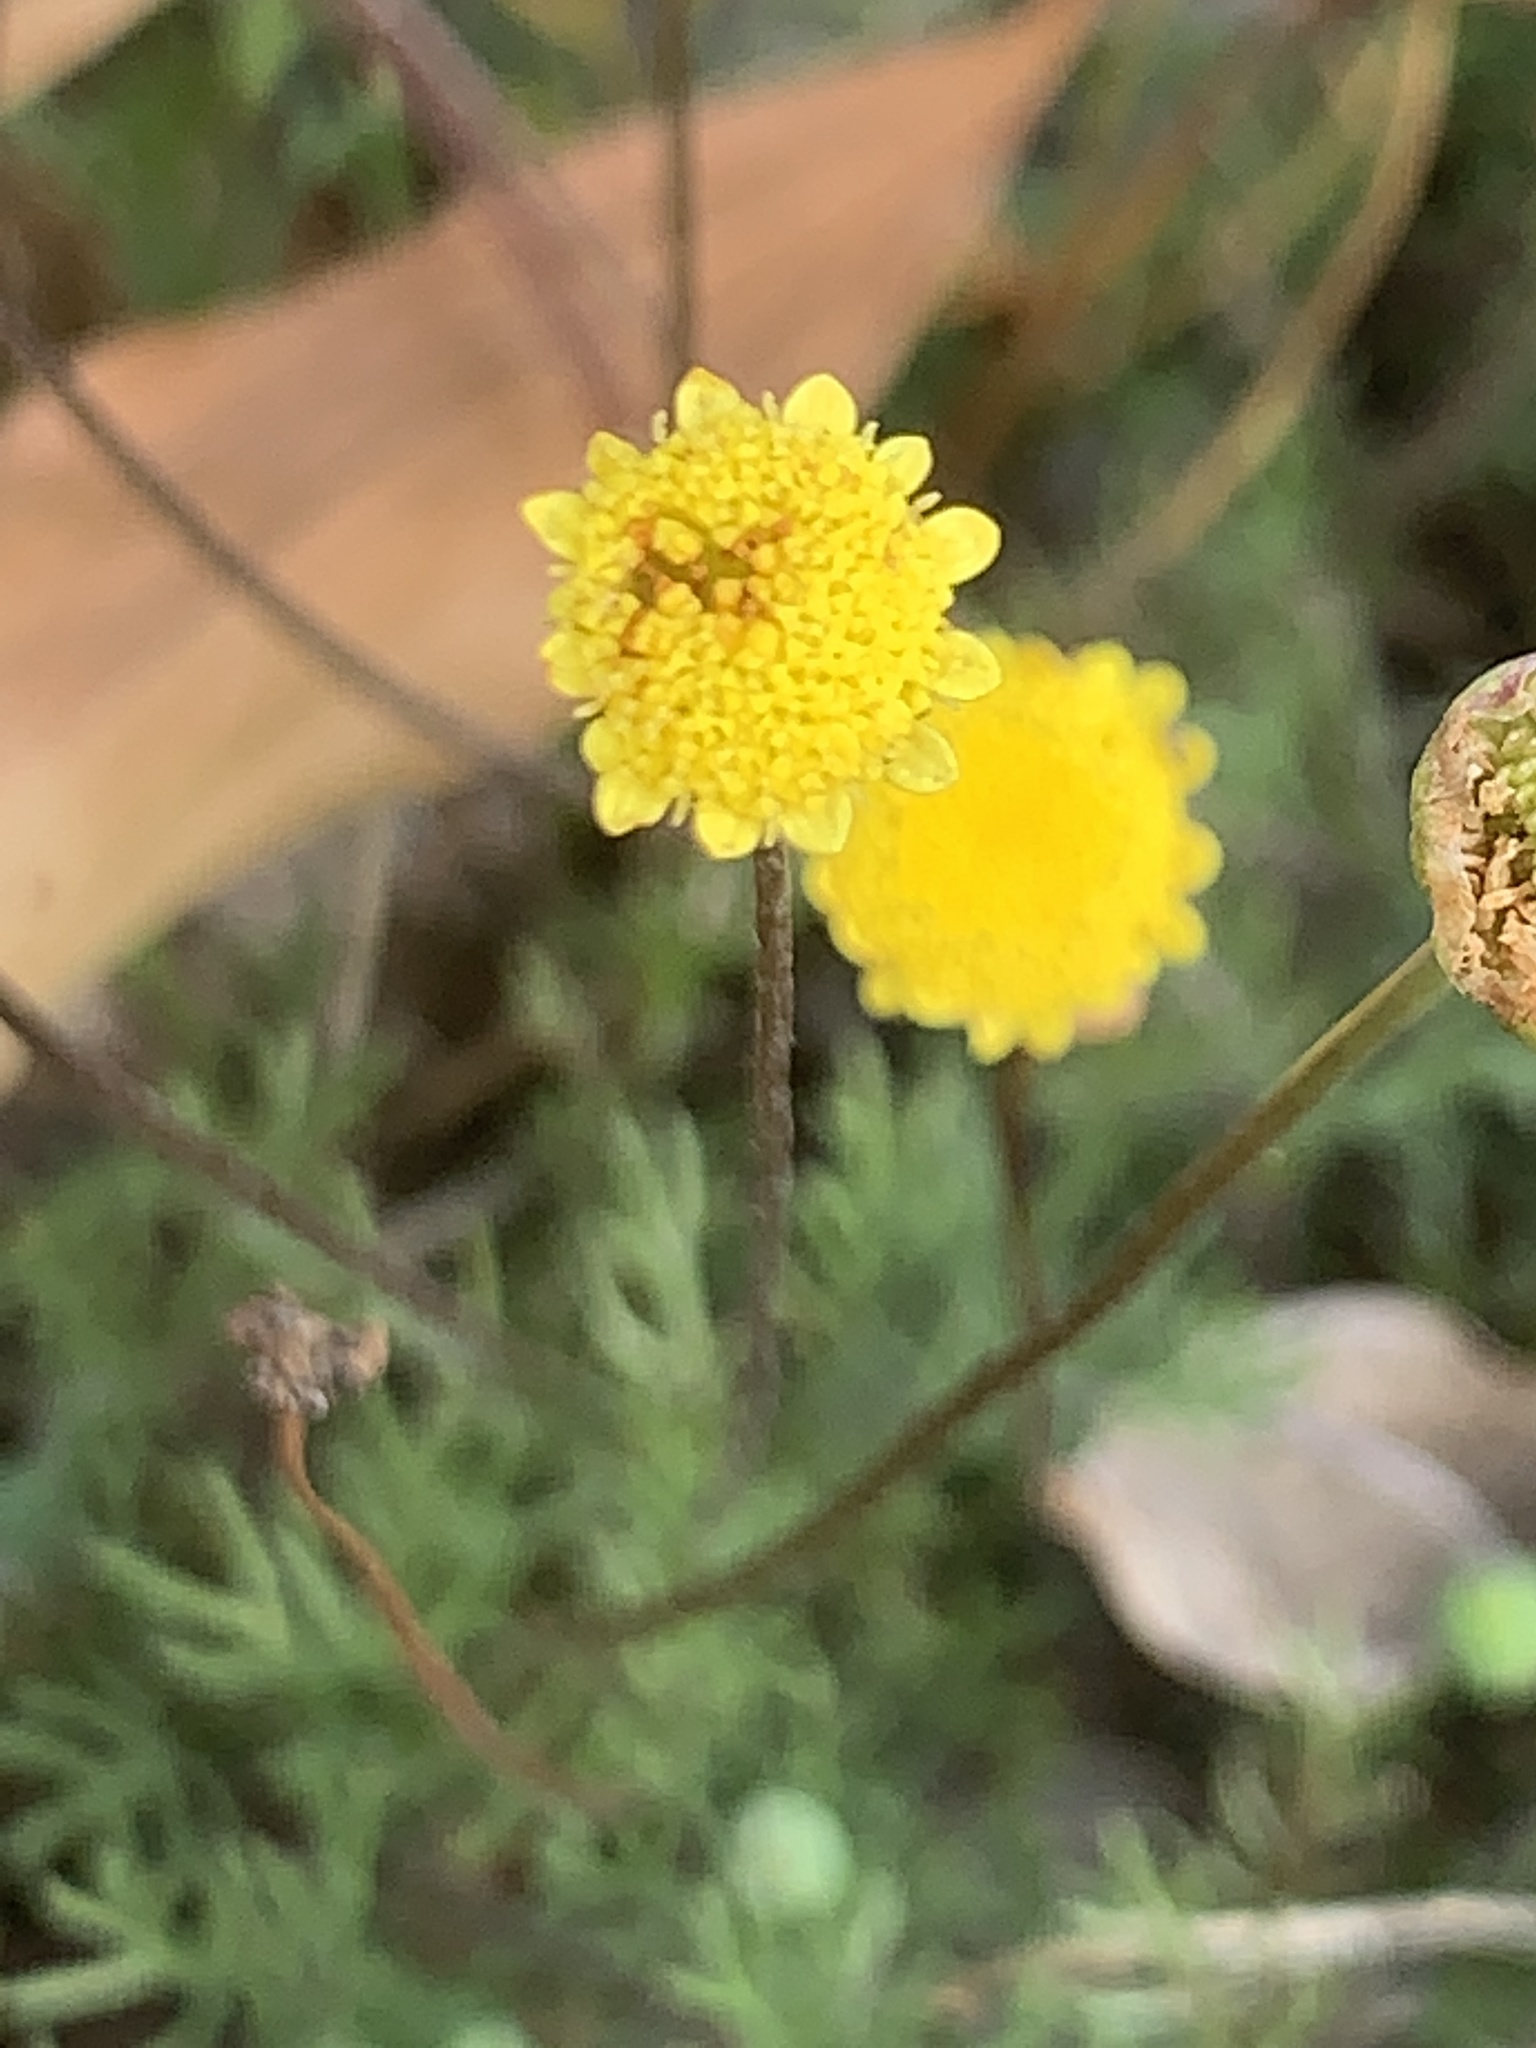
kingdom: Plantae
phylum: Tracheophyta
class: Magnoliopsida
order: Asterales
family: Asteraceae
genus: Cotula
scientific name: Cotula pruinosa
